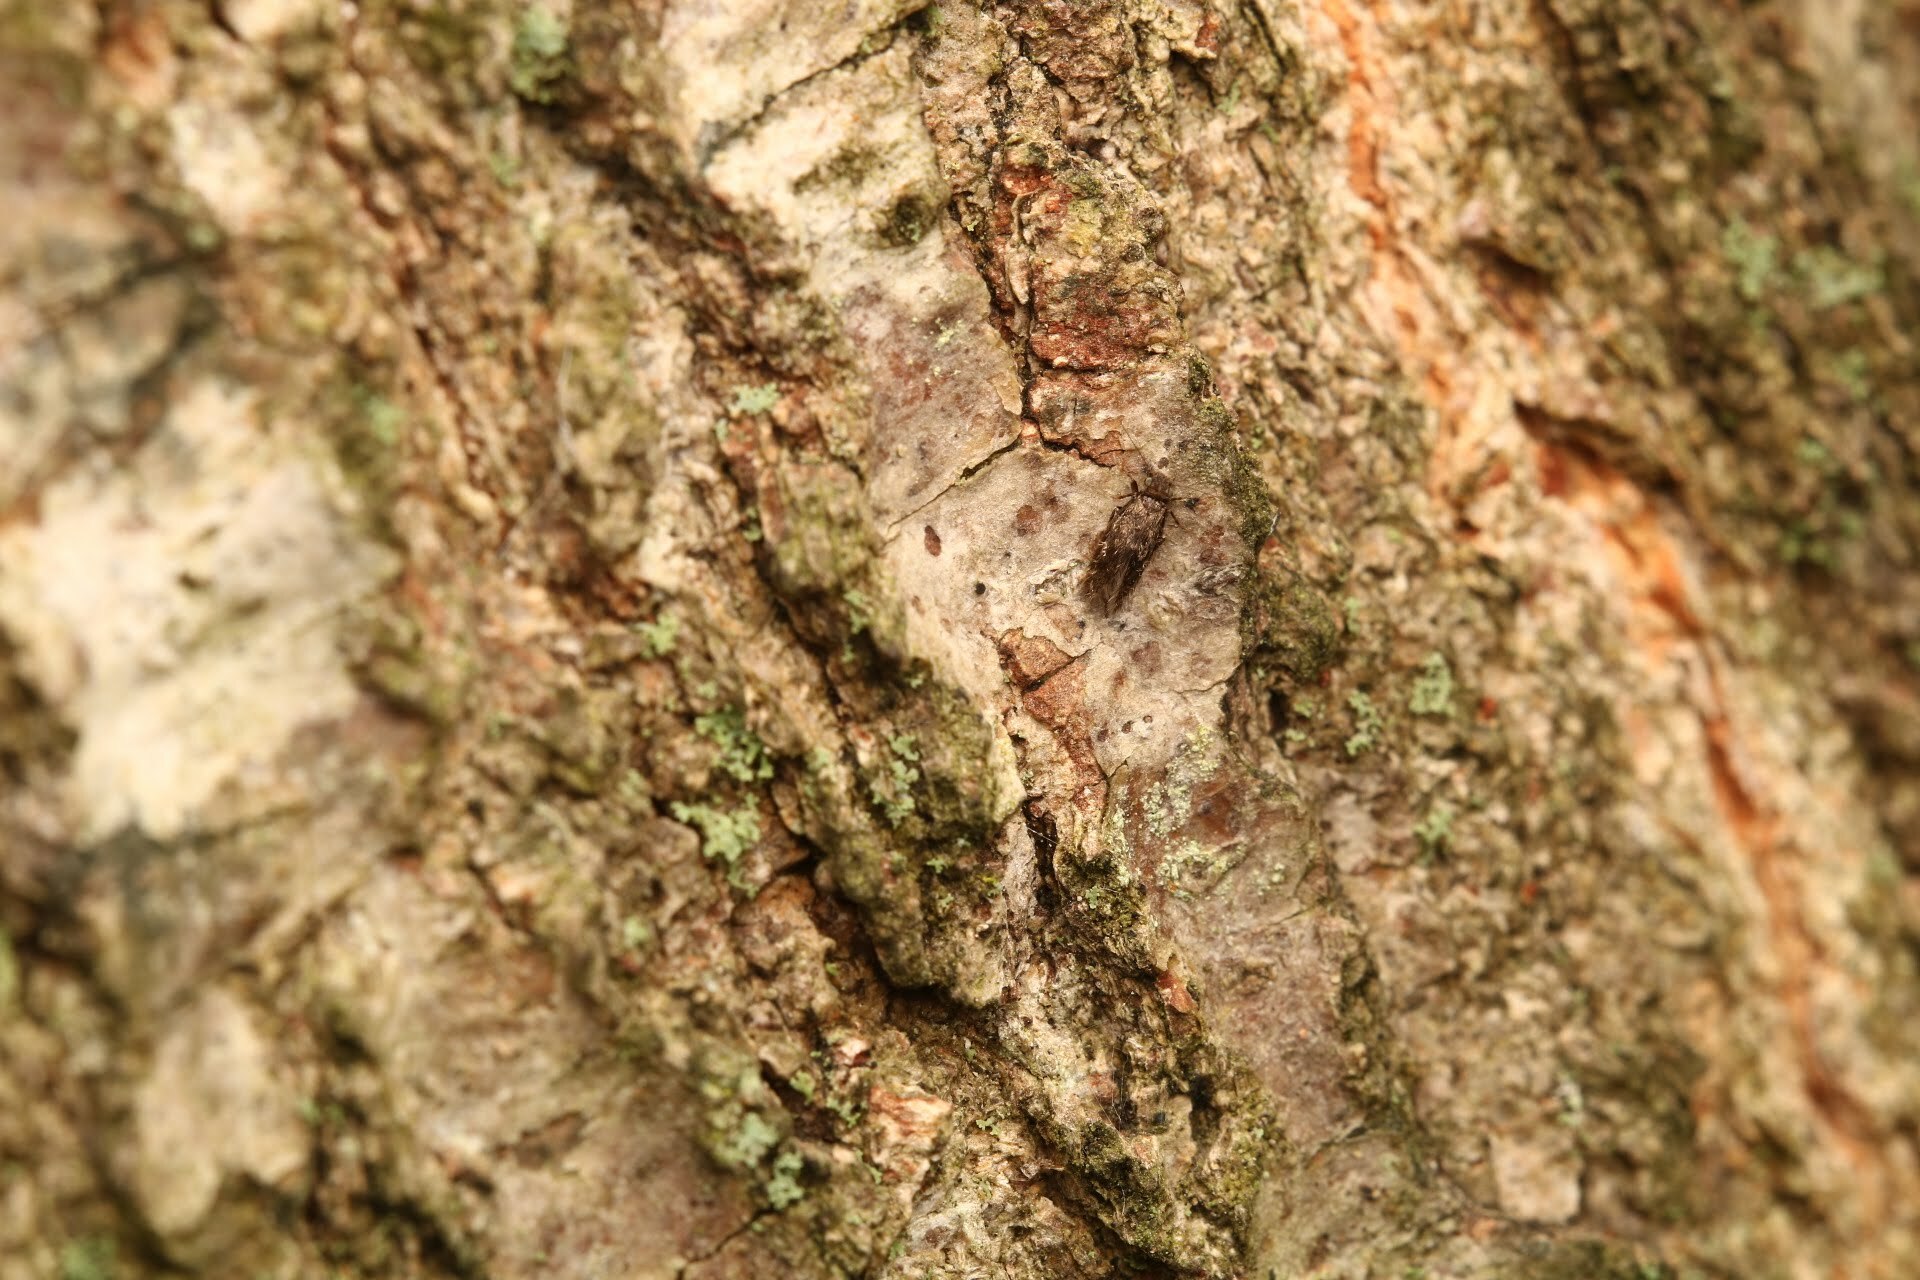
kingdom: Animalia
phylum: Arthropoda
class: Insecta
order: Psocodea
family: Lepidopsocidae
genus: Echmepteryx
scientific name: Echmepteryx hageni
